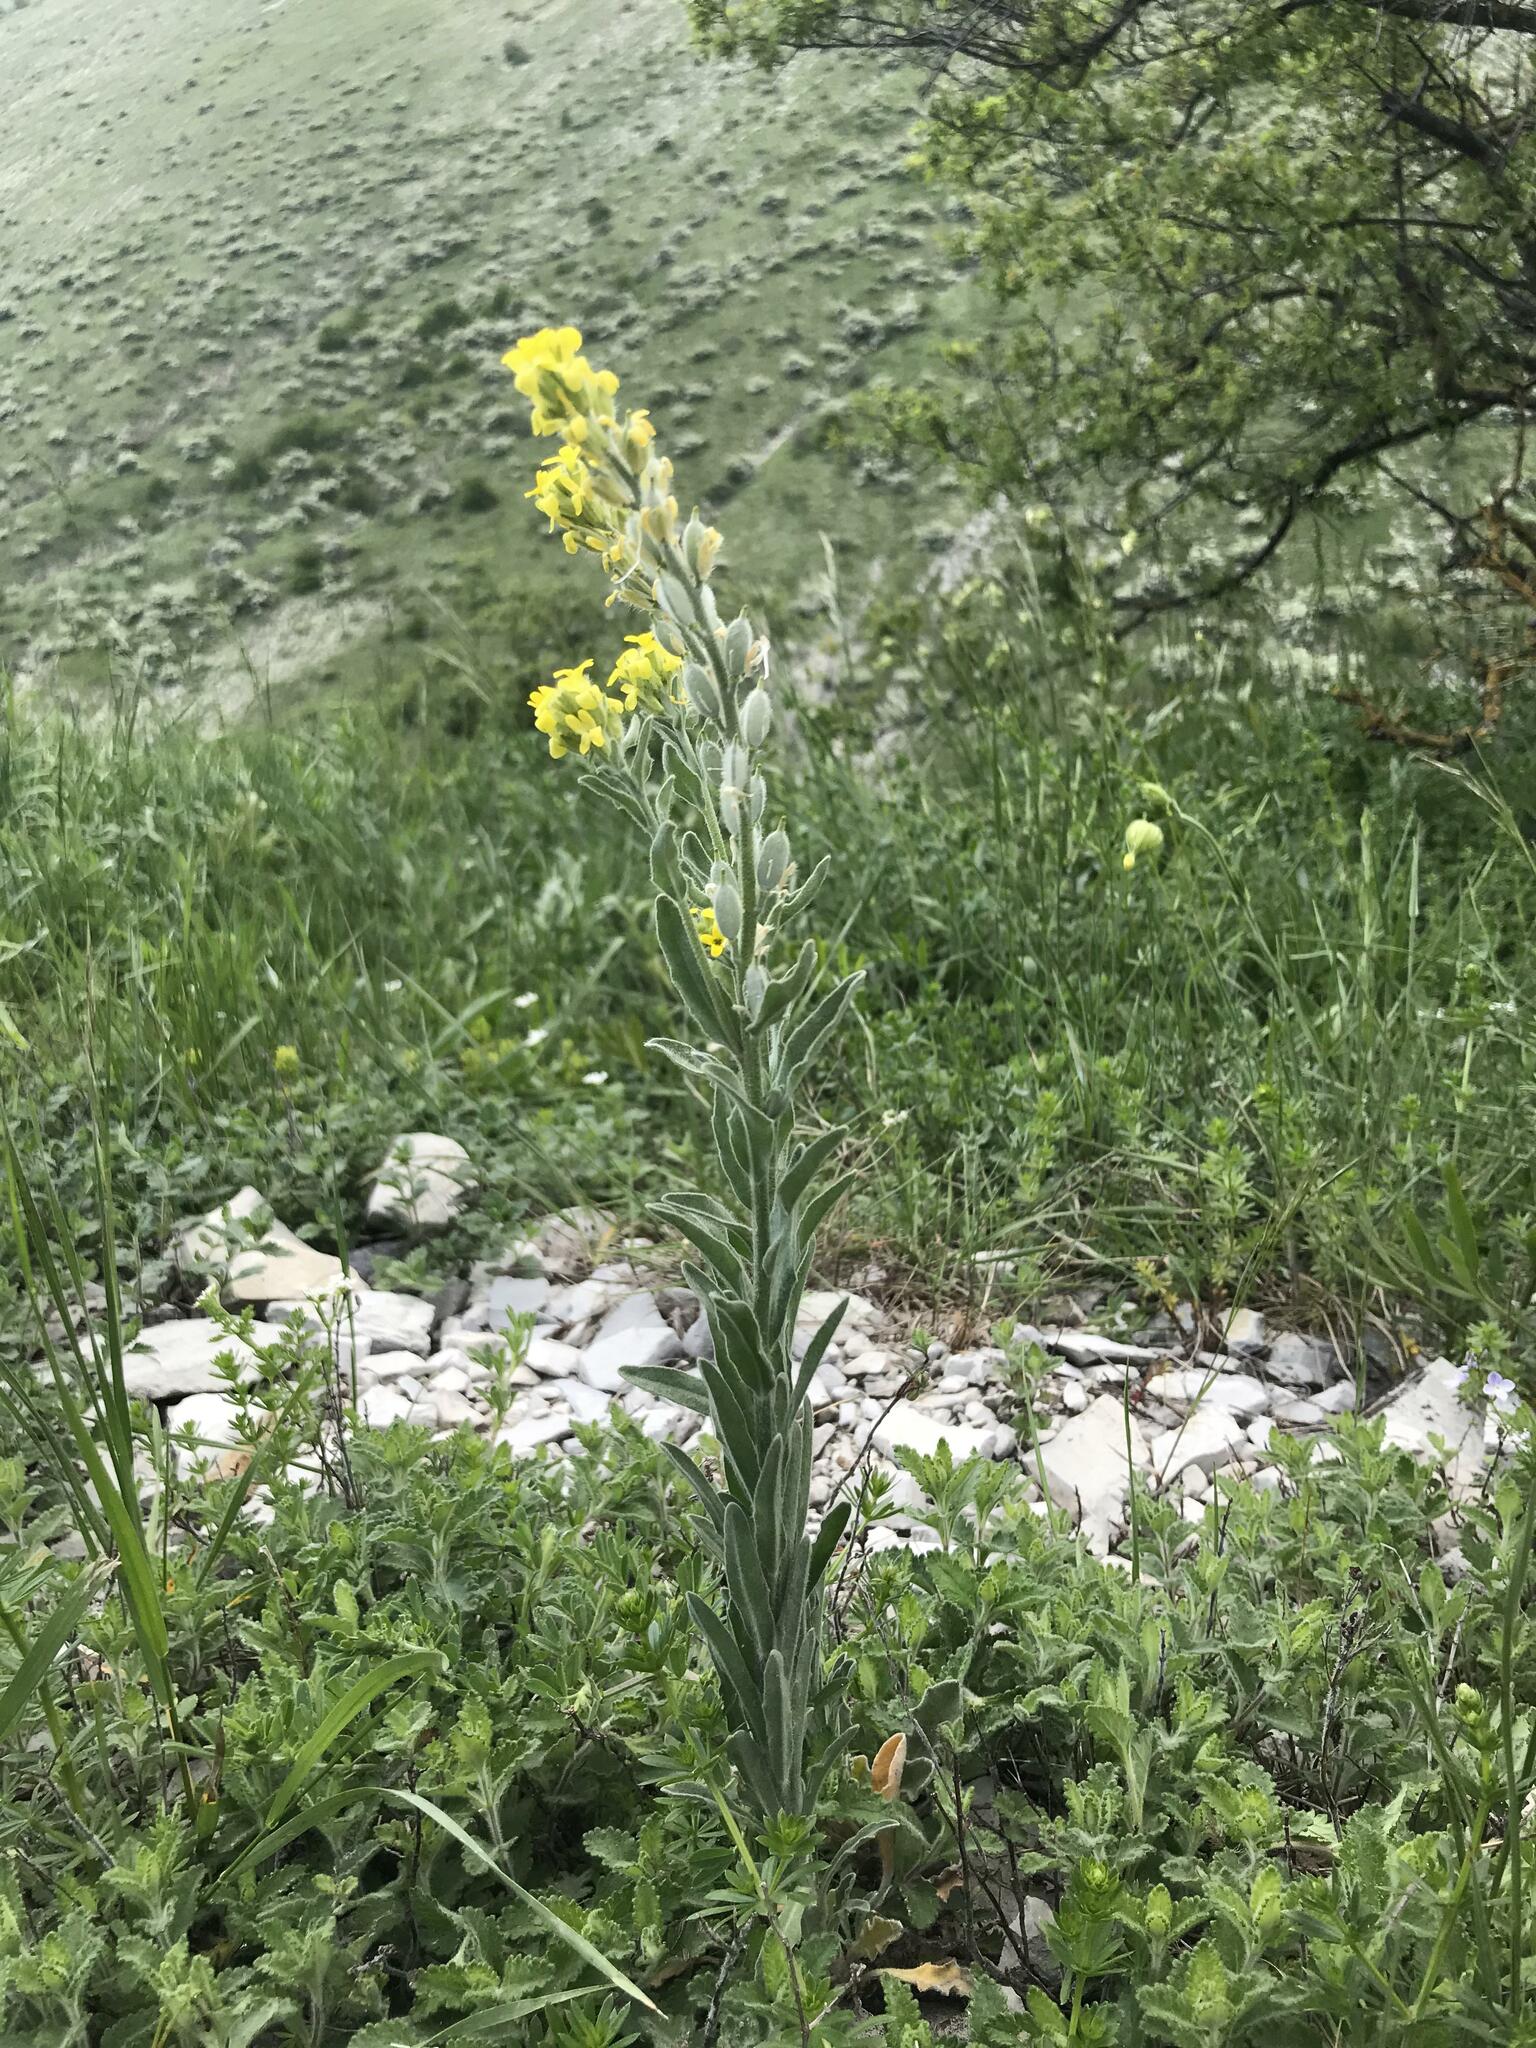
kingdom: Plantae
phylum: Tracheophyta
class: Magnoliopsida
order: Brassicales
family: Brassicaceae
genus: Fibigia
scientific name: Fibigia clypeata
